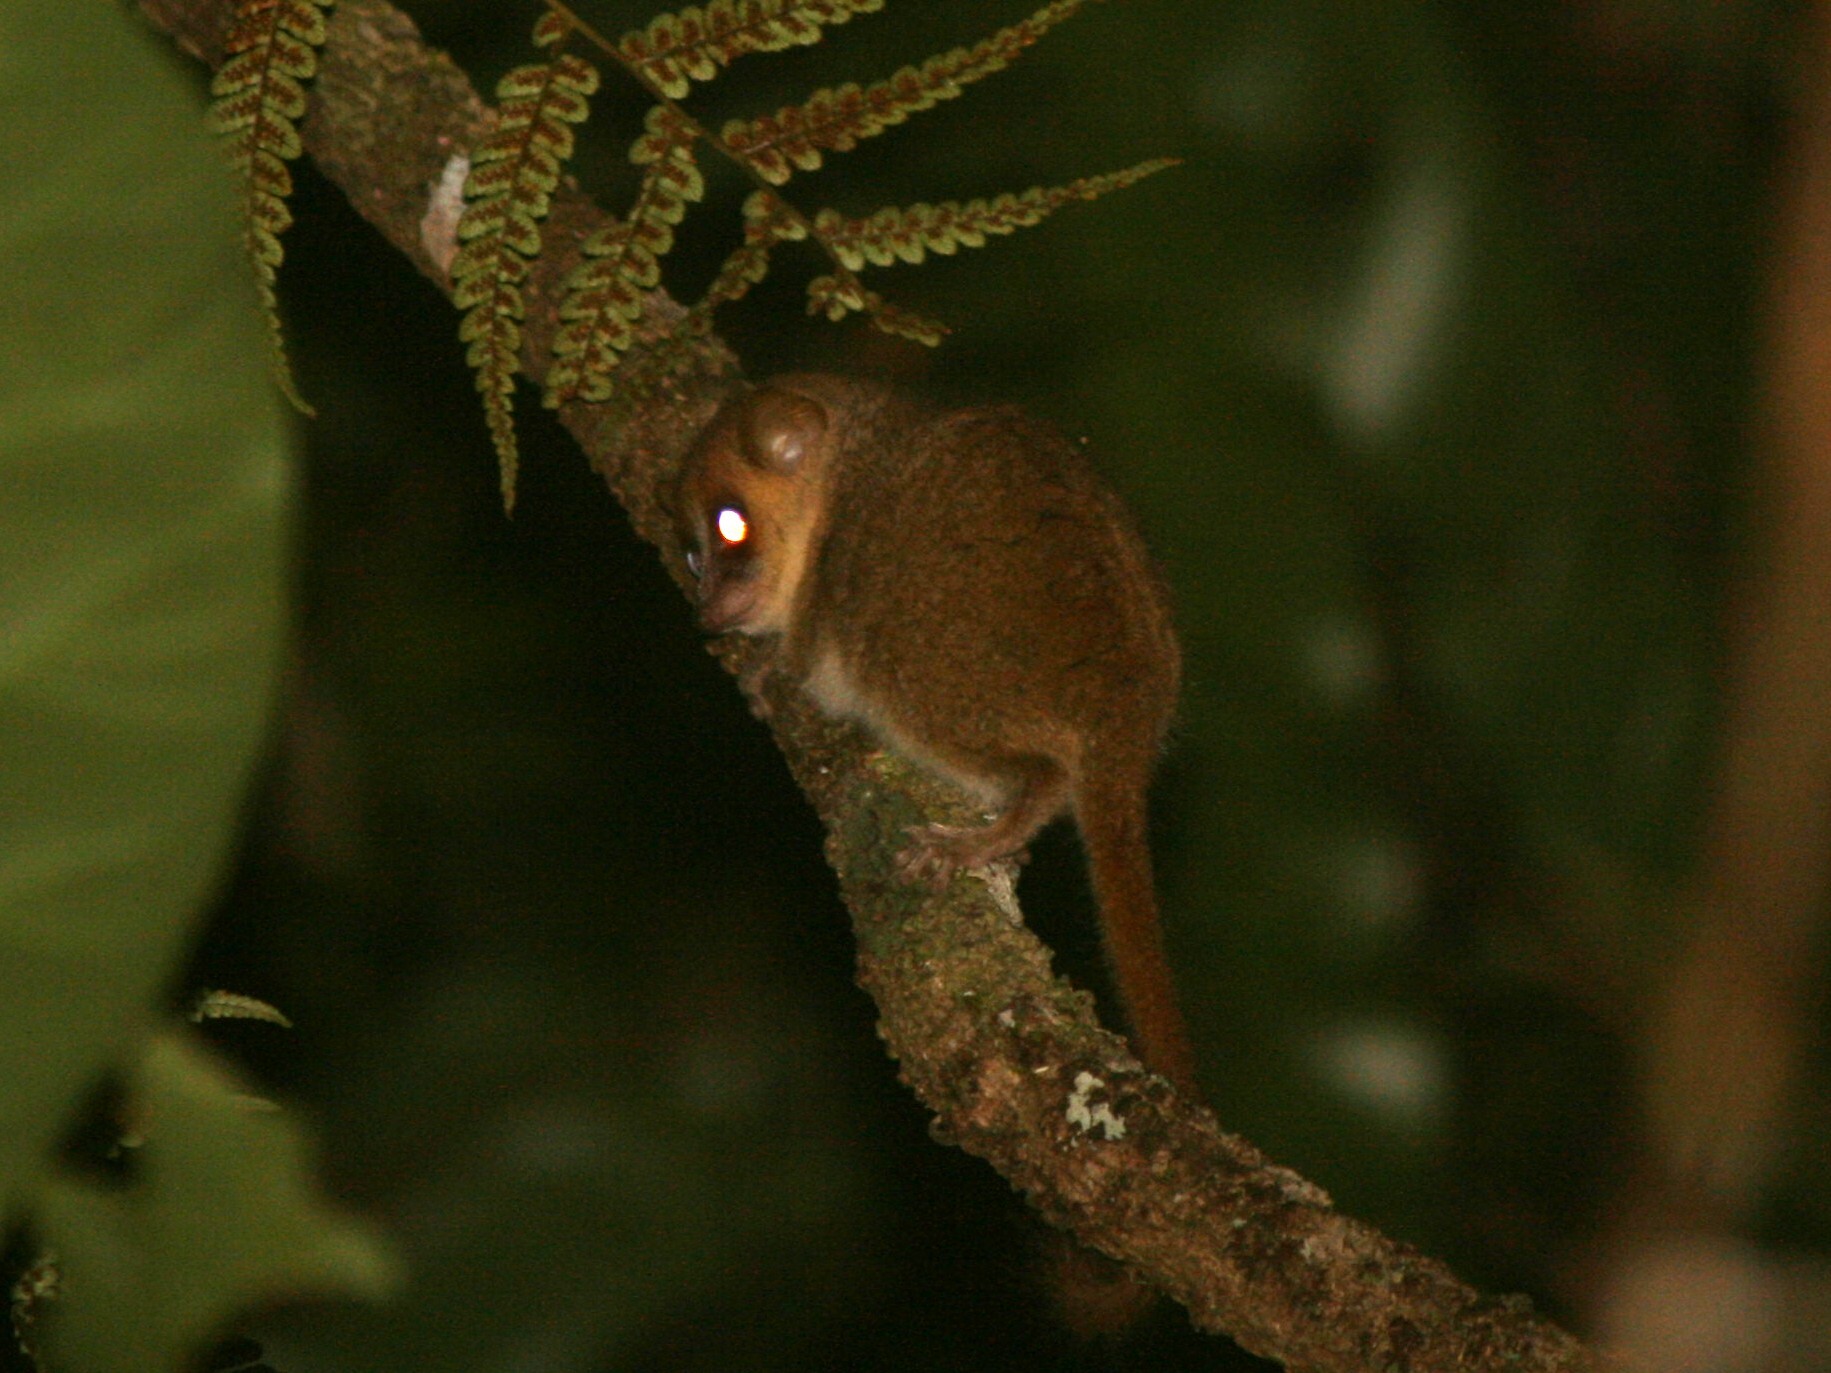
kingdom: Animalia
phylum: Chordata
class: Mammalia
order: Primates
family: Cheirogaleidae
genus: Microcebus
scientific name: Microcebus lehilahytsara
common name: Goodman's mouse lemur
